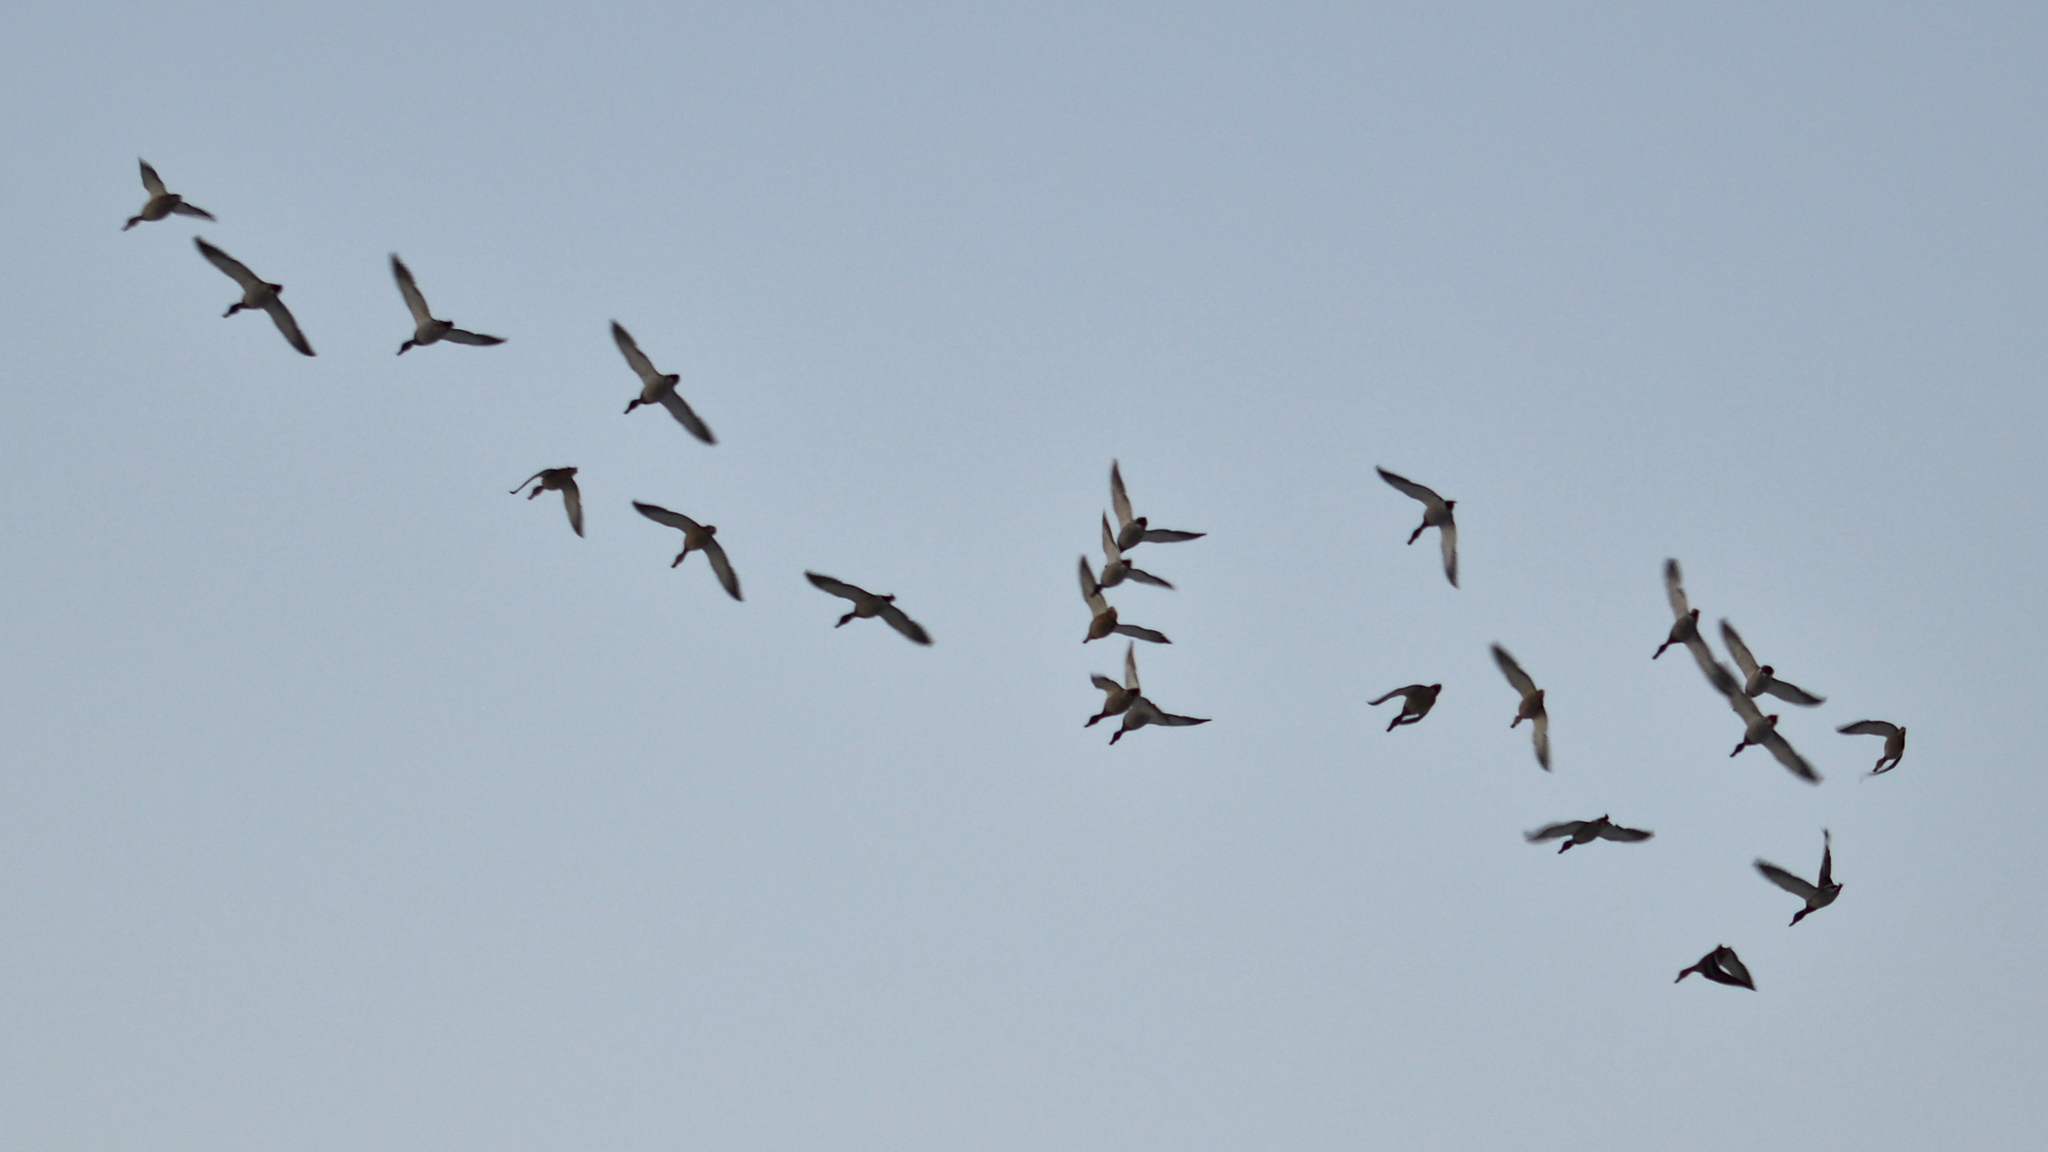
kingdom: Animalia
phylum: Chordata
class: Aves
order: Anseriformes
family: Anatidae
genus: Anas
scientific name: Anas platyrhynchos
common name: Mallard
